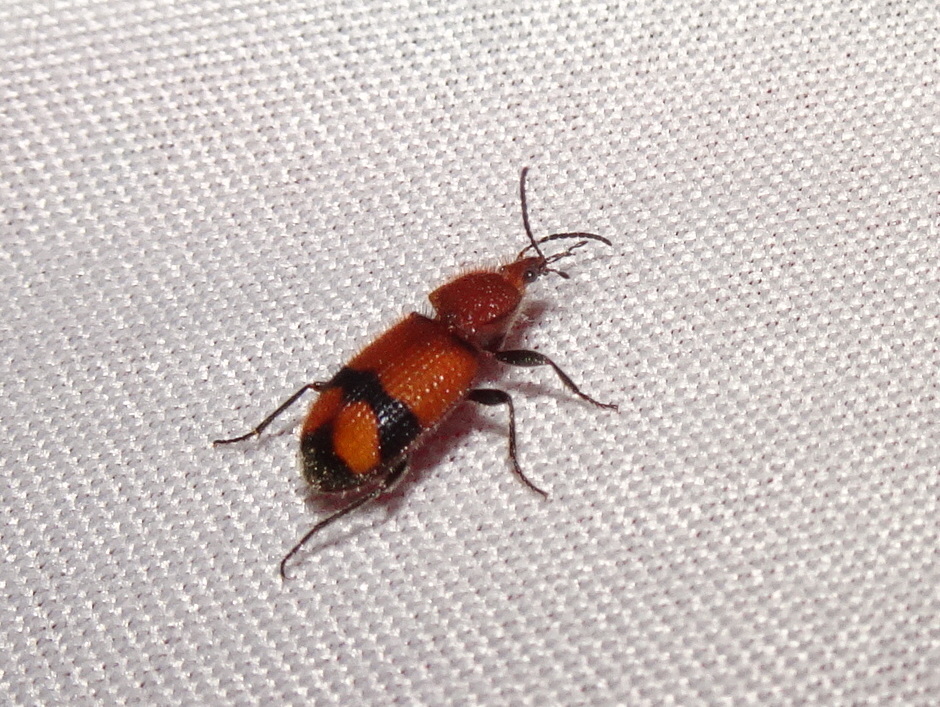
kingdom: Animalia
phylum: Arthropoda
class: Insecta
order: Coleoptera
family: Carabidae
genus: Panagaeus
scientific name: Panagaeus fasciatus
